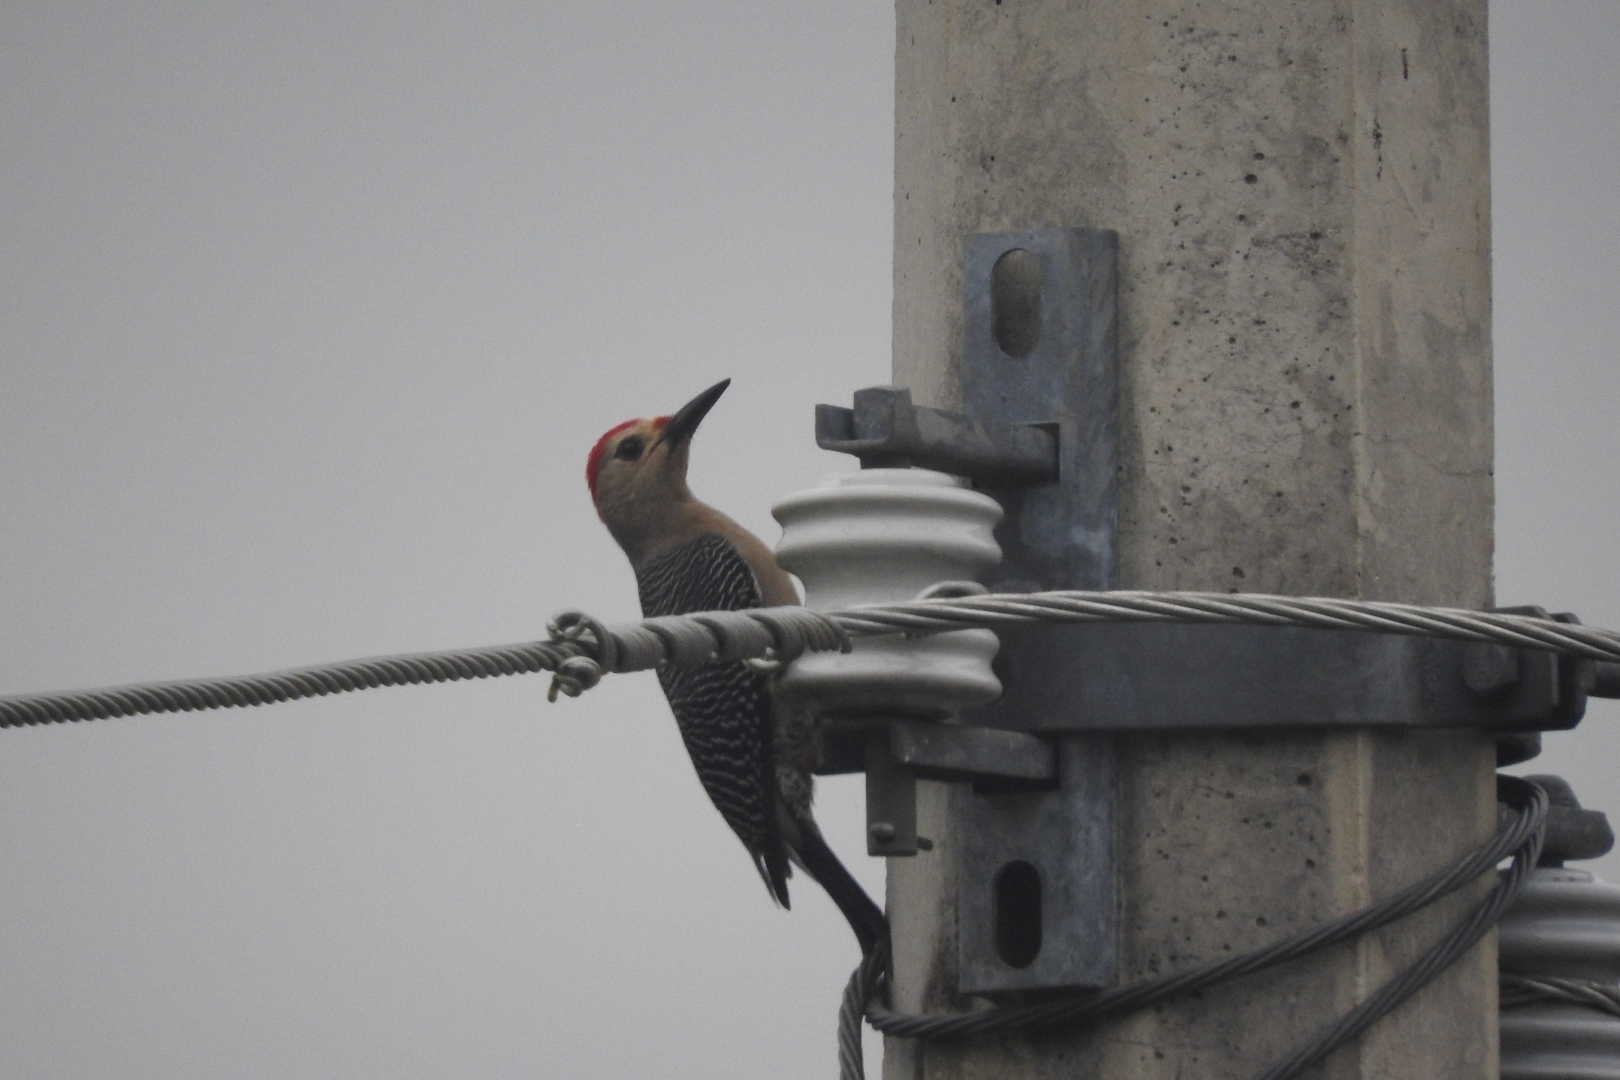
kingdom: Animalia
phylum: Chordata
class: Aves
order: Piciformes
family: Picidae
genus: Melanerpes
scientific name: Melanerpes aurifrons
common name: Golden-fronted woodpecker
